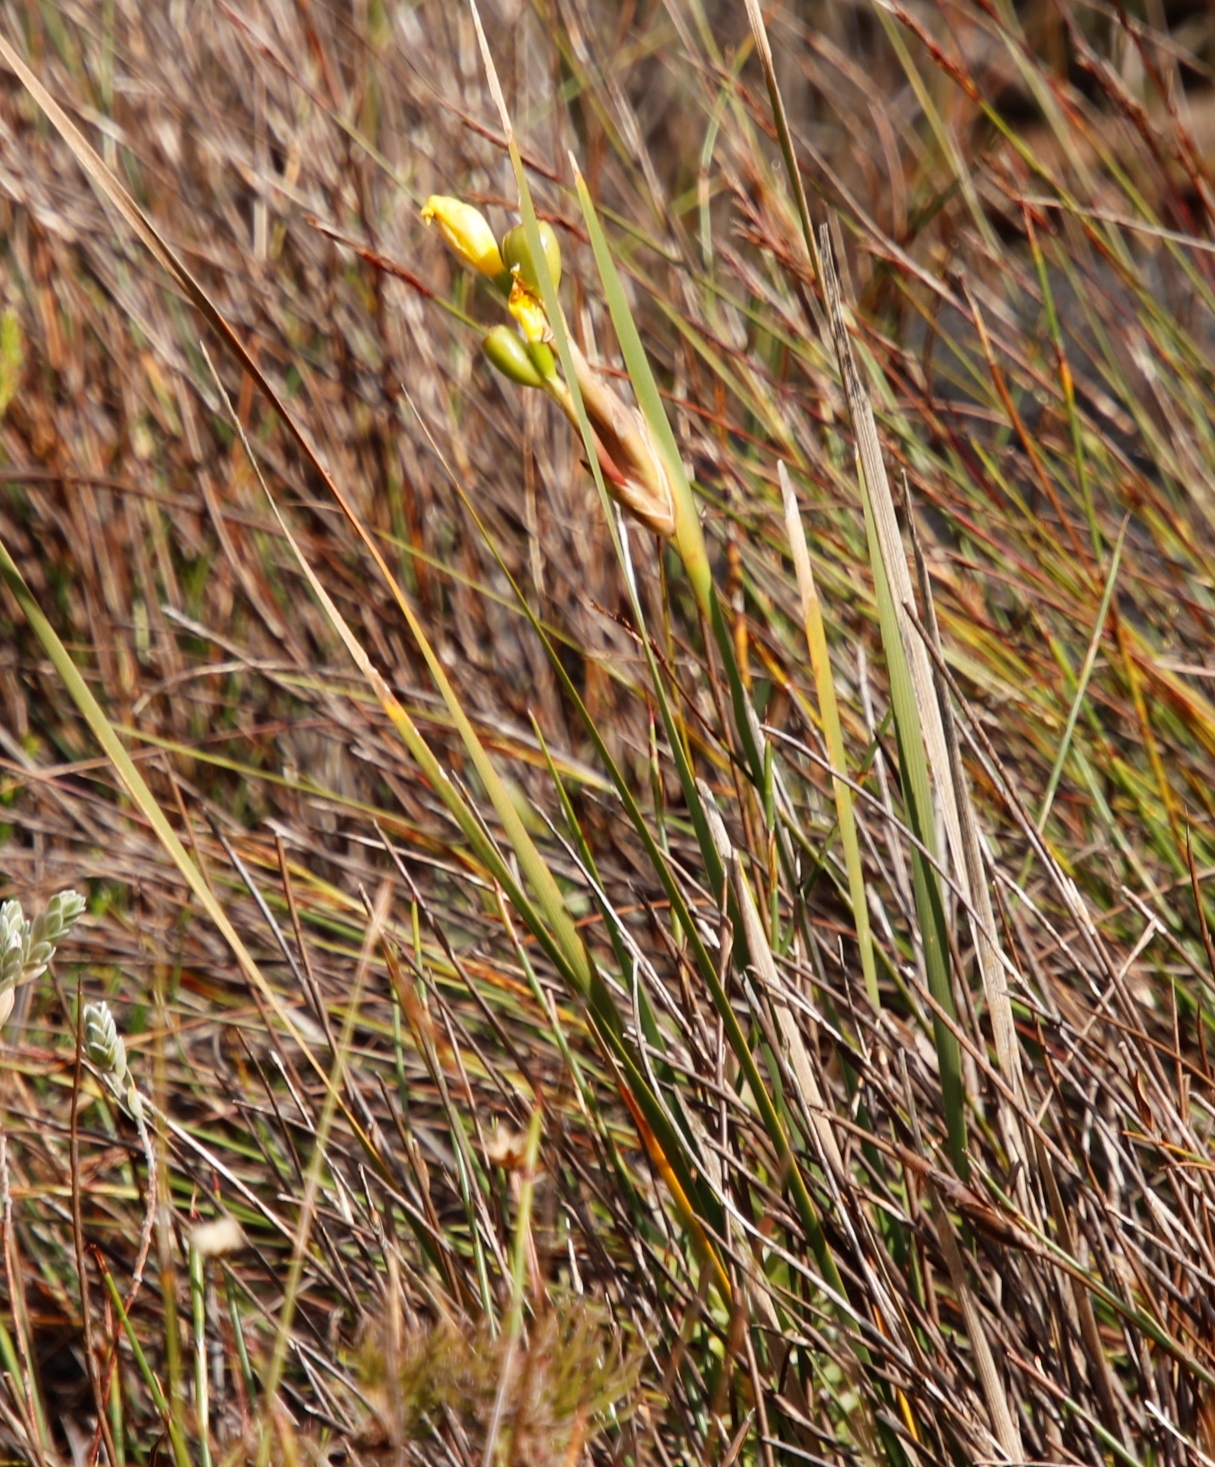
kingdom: Plantae
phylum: Tracheophyta
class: Liliopsida
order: Asparagales
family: Iridaceae
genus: Bobartia
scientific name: Bobartia gladiata
